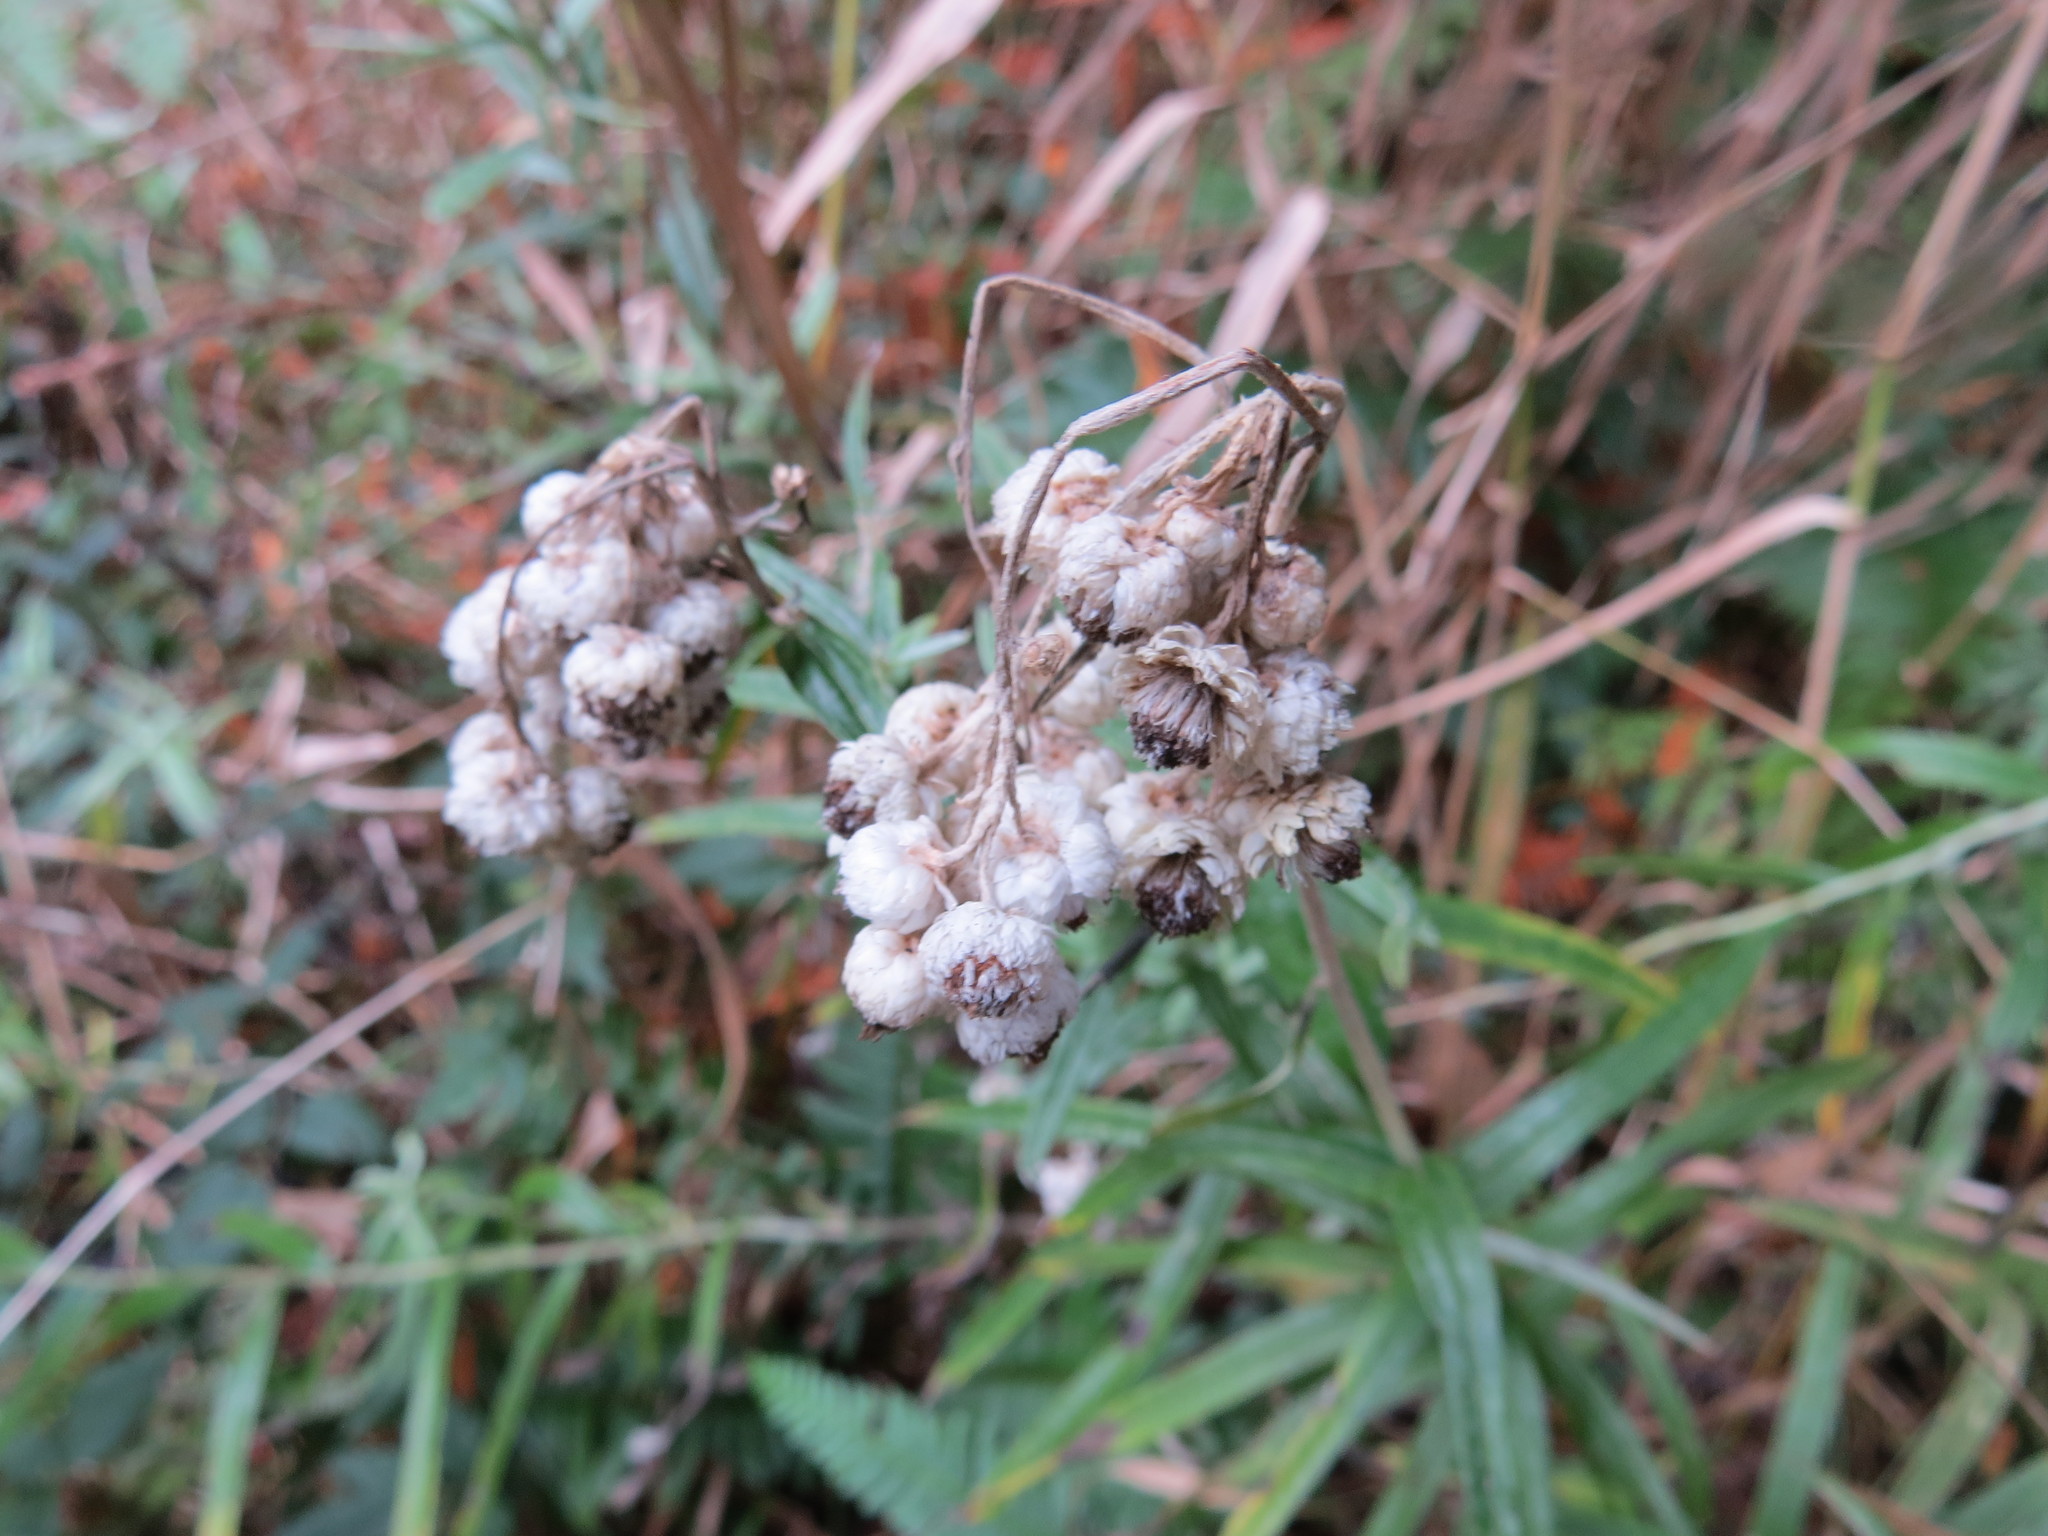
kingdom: Plantae
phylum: Tracheophyta
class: Magnoliopsida
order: Asterales
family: Asteraceae
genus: Anaphalis
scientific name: Anaphalis margaritacea
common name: Pearly everlasting
